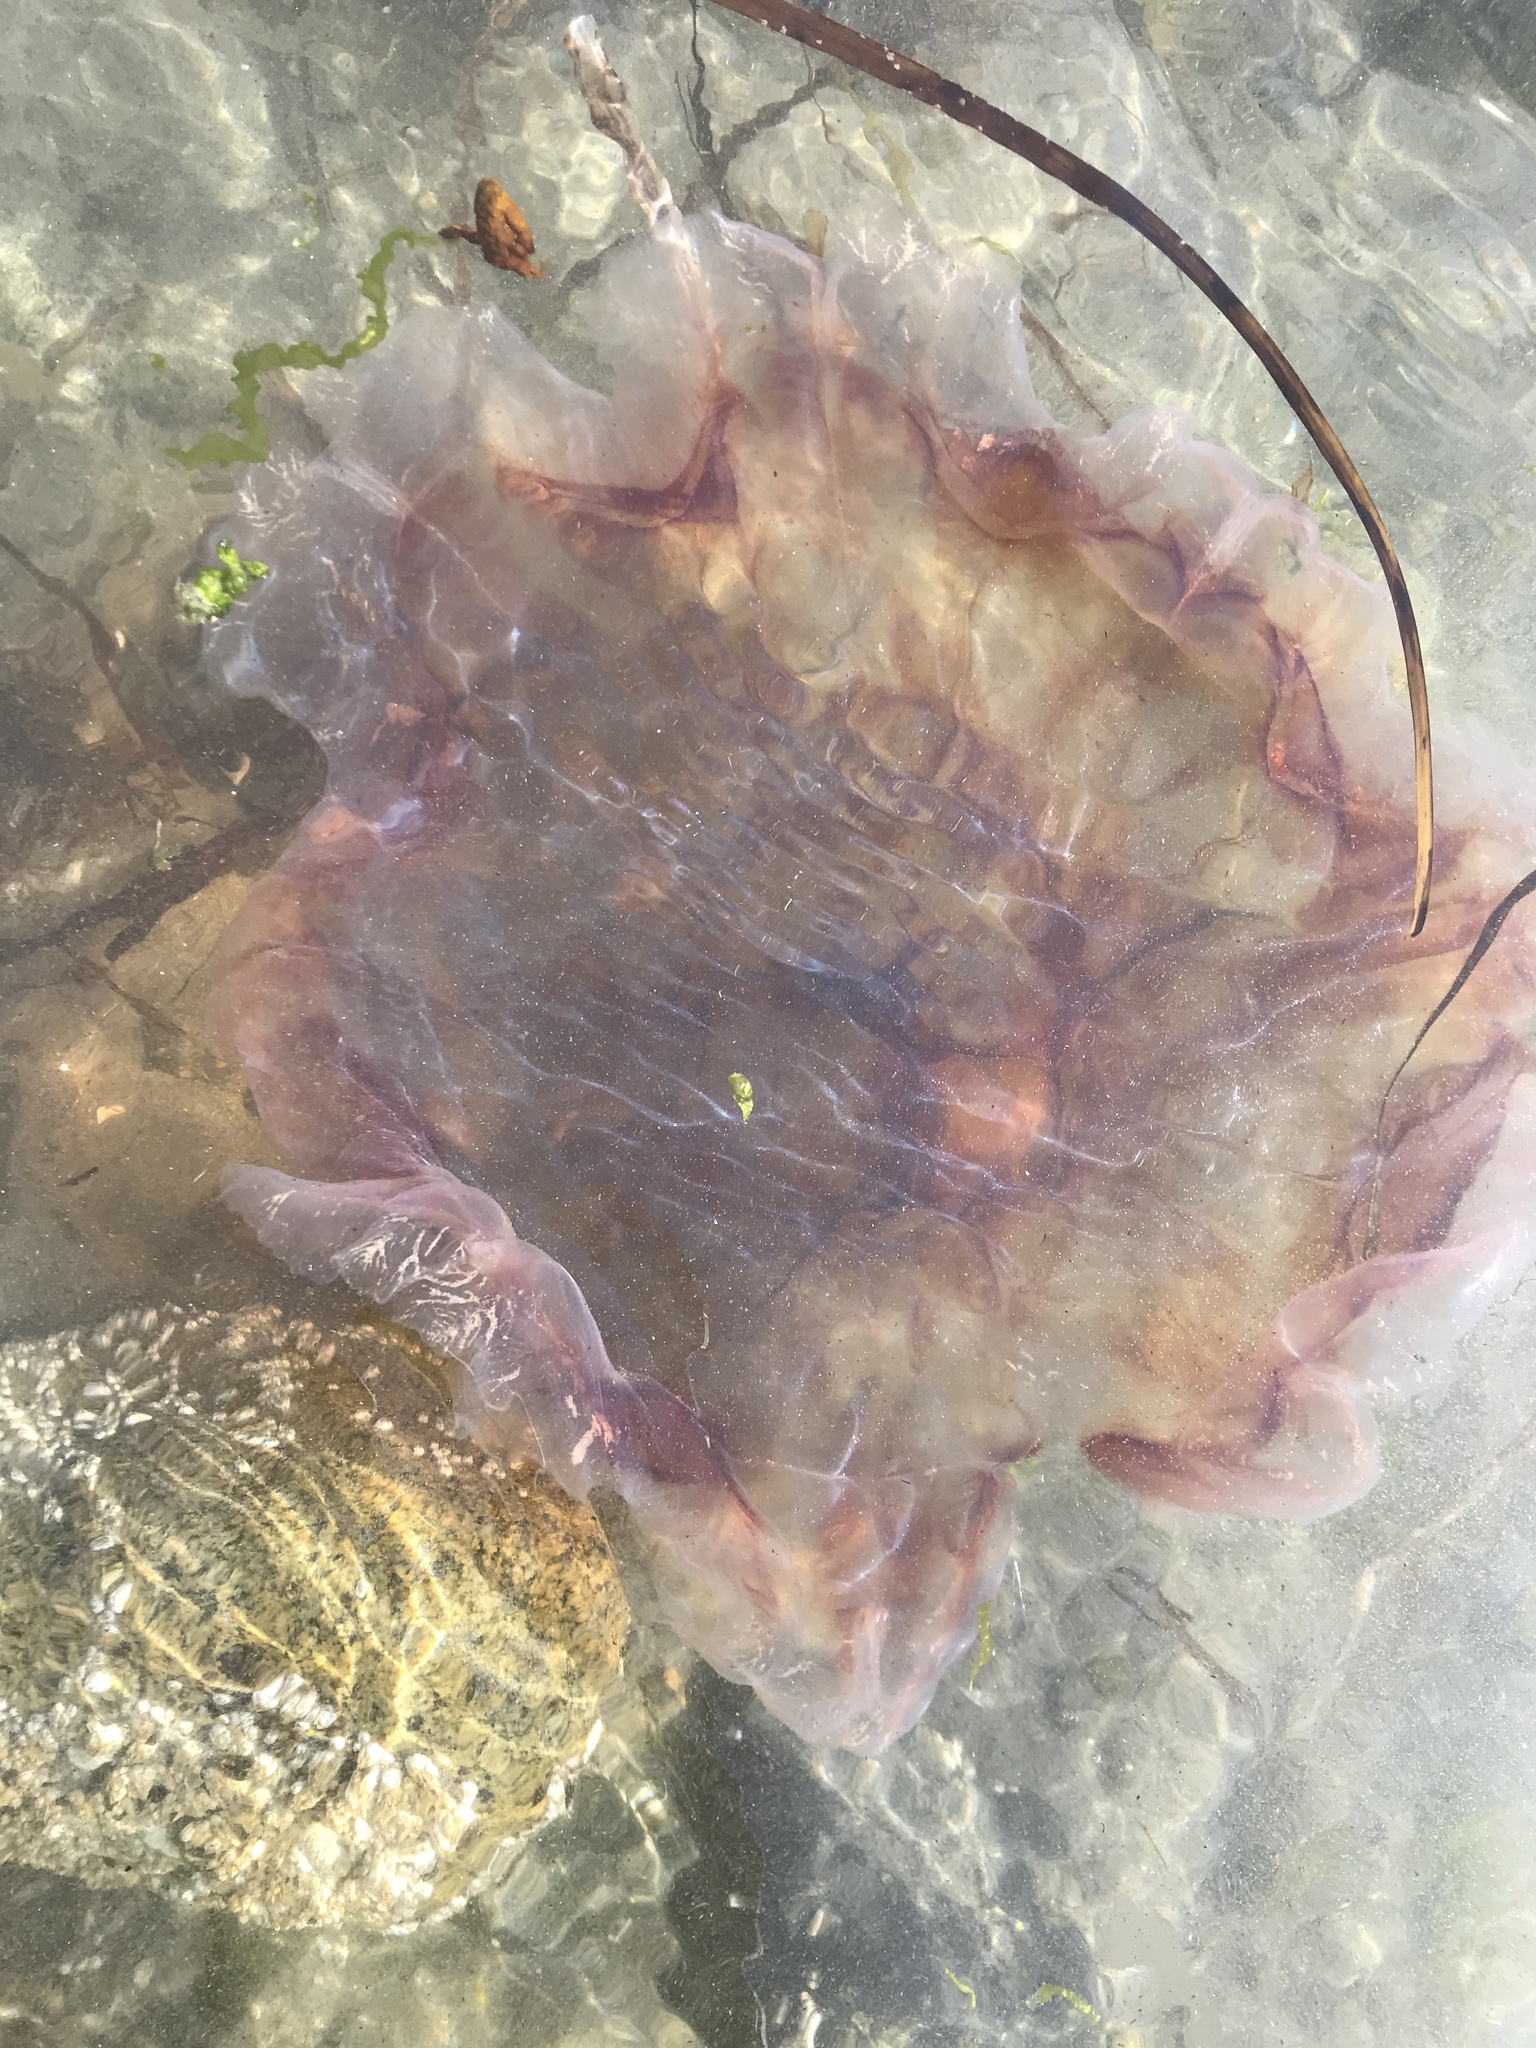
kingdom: Animalia
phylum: Cnidaria
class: Scyphozoa
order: Semaeostomeae
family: Cyaneidae
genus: Cyanea
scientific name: Cyanea ferruginea
